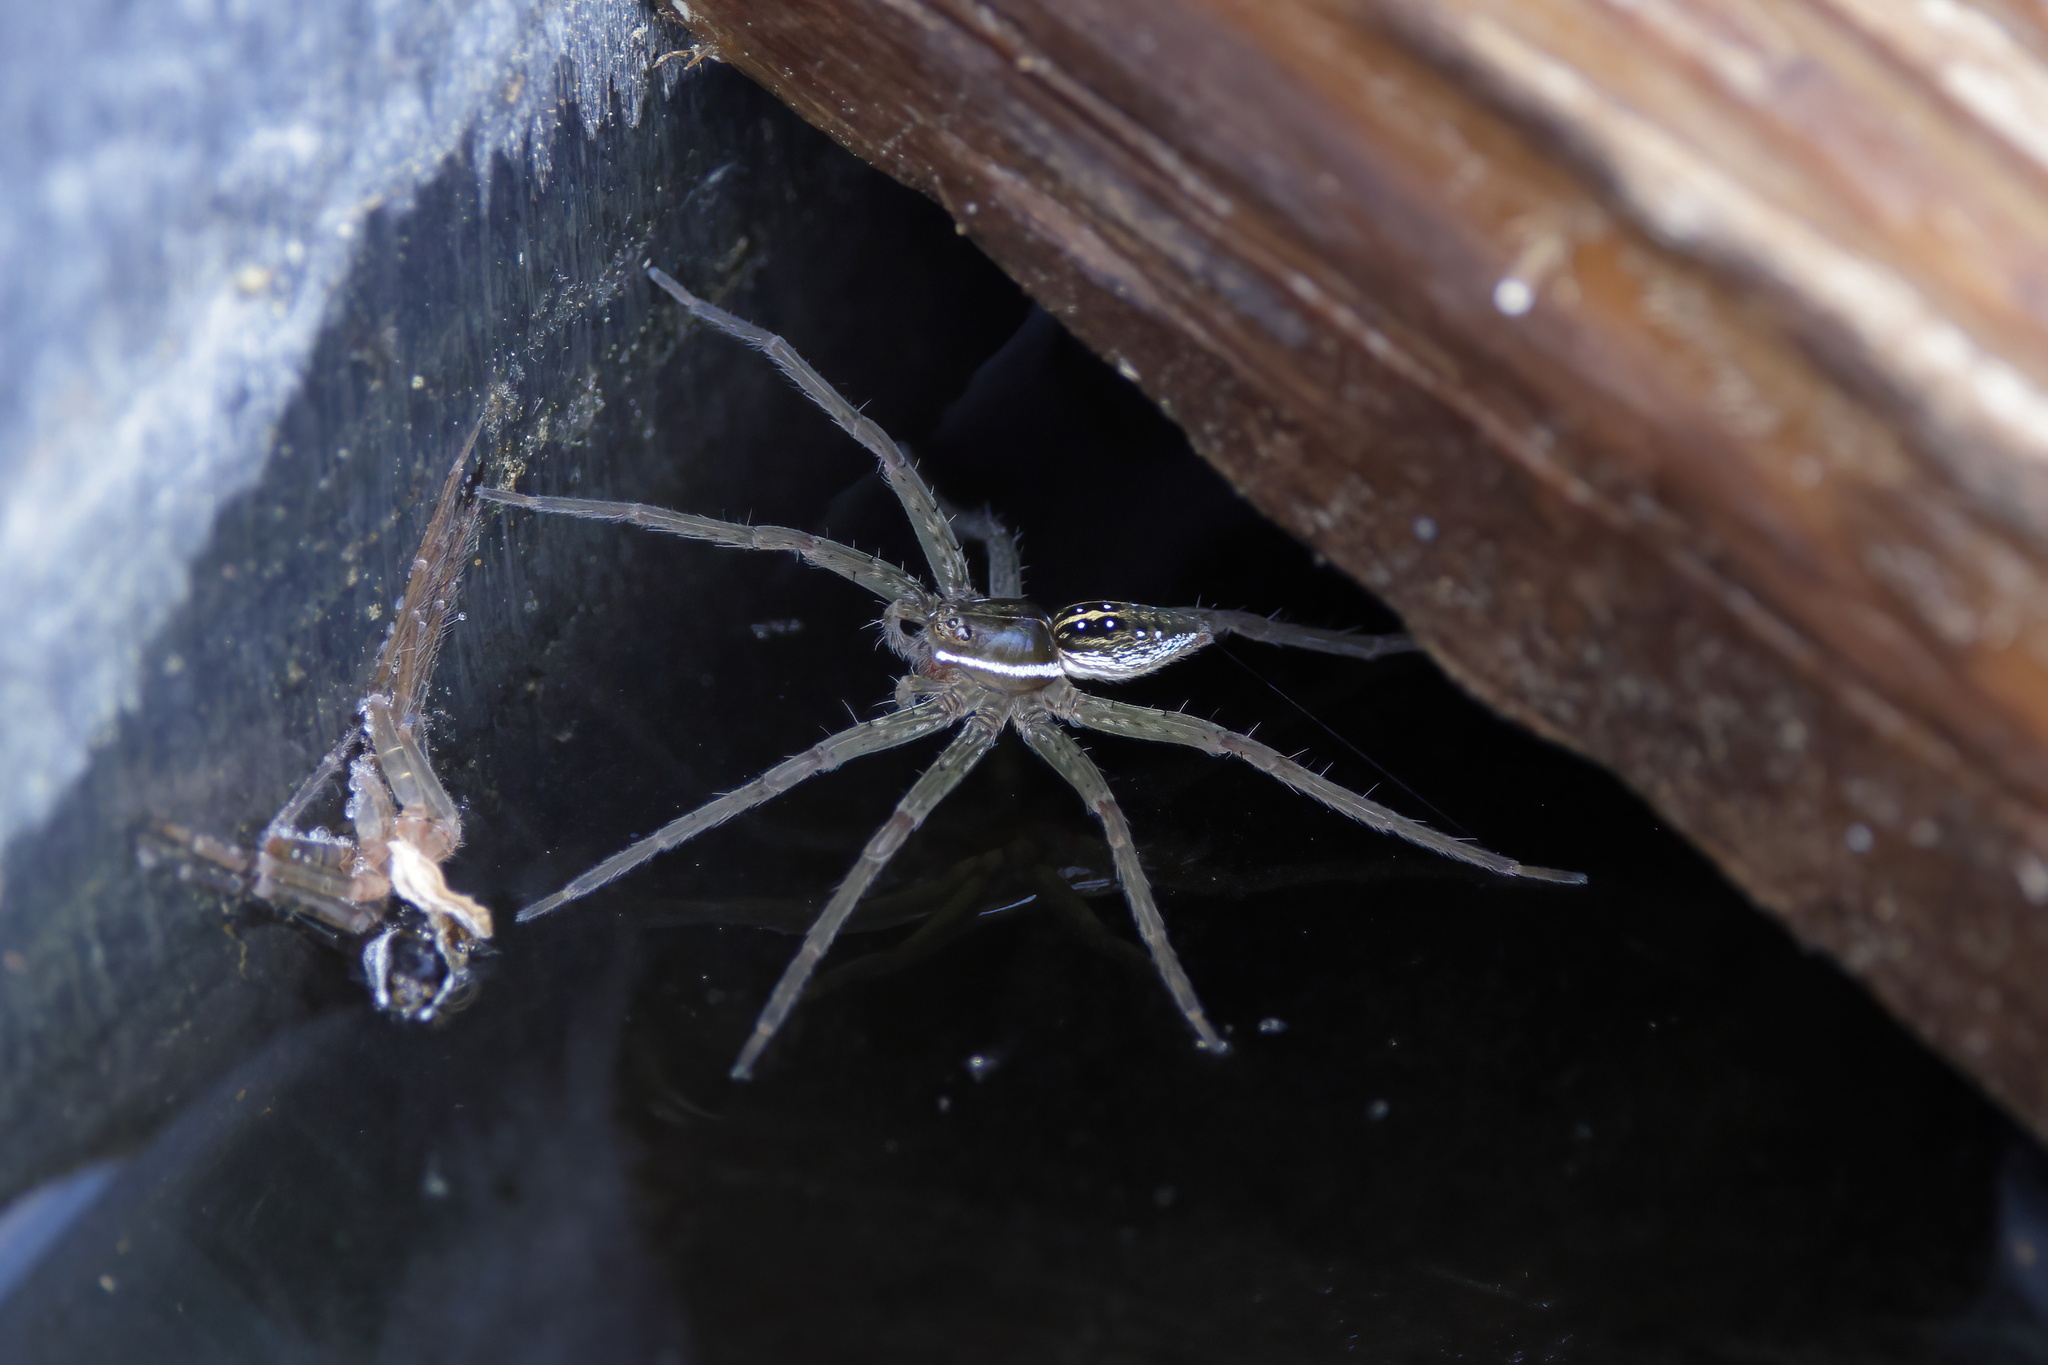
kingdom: Animalia
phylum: Arthropoda
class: Arachnida
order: Araneae
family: Pisauridae
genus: Dolomedes
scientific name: Dolomedes triton
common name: Six-spotted fishing spider
